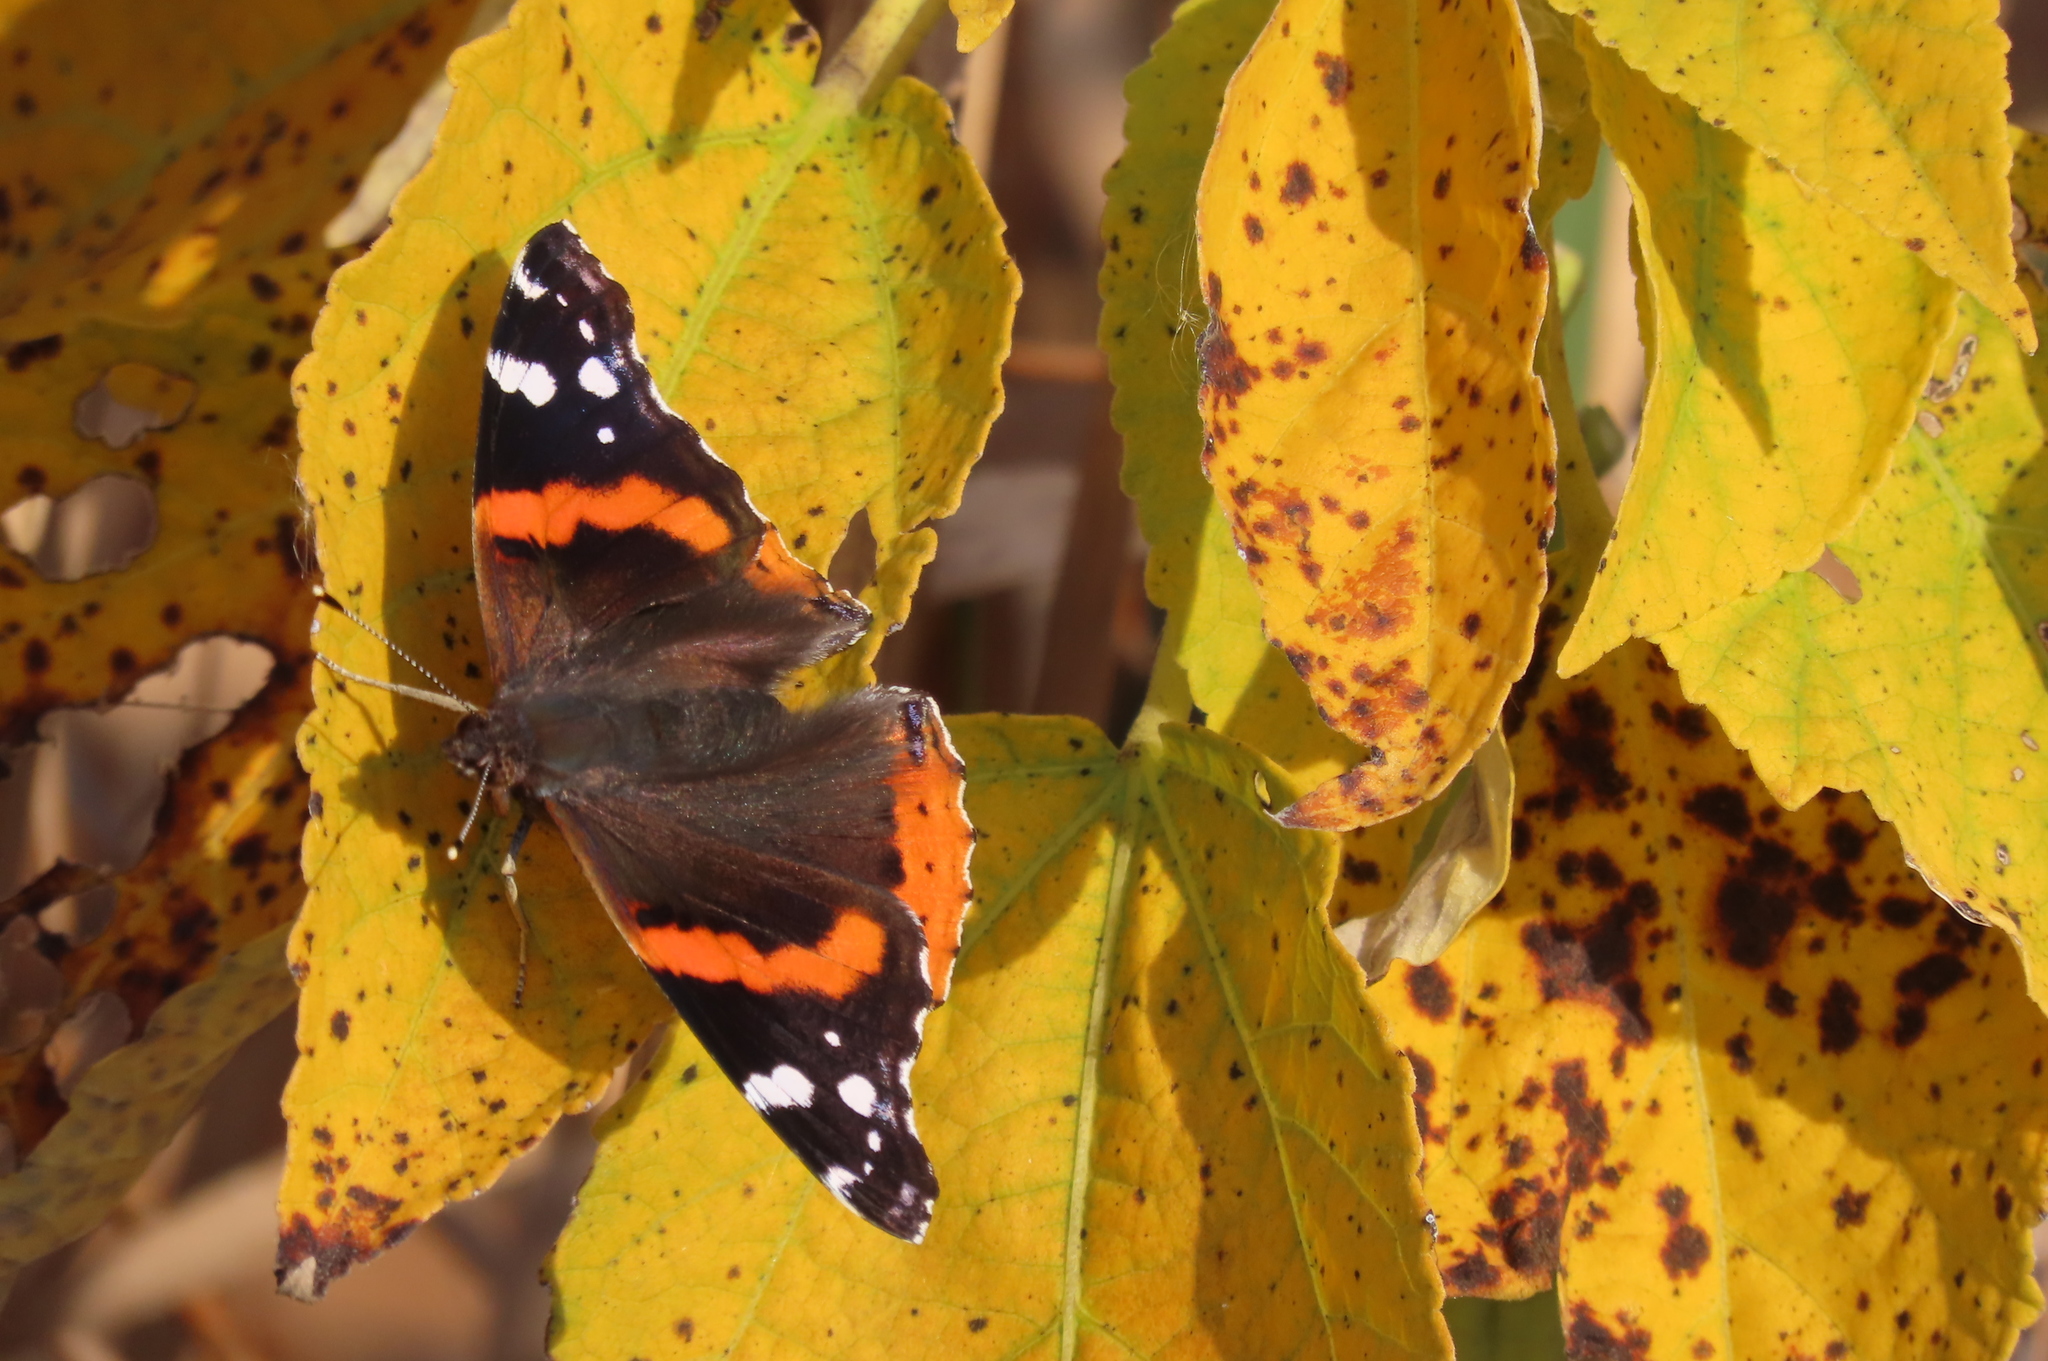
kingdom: Animalia
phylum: Arthropoda
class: Insecta
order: Lepidoptera
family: Nymphalidae
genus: Vanessa
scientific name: Vanessa atalanta
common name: Red admiral
